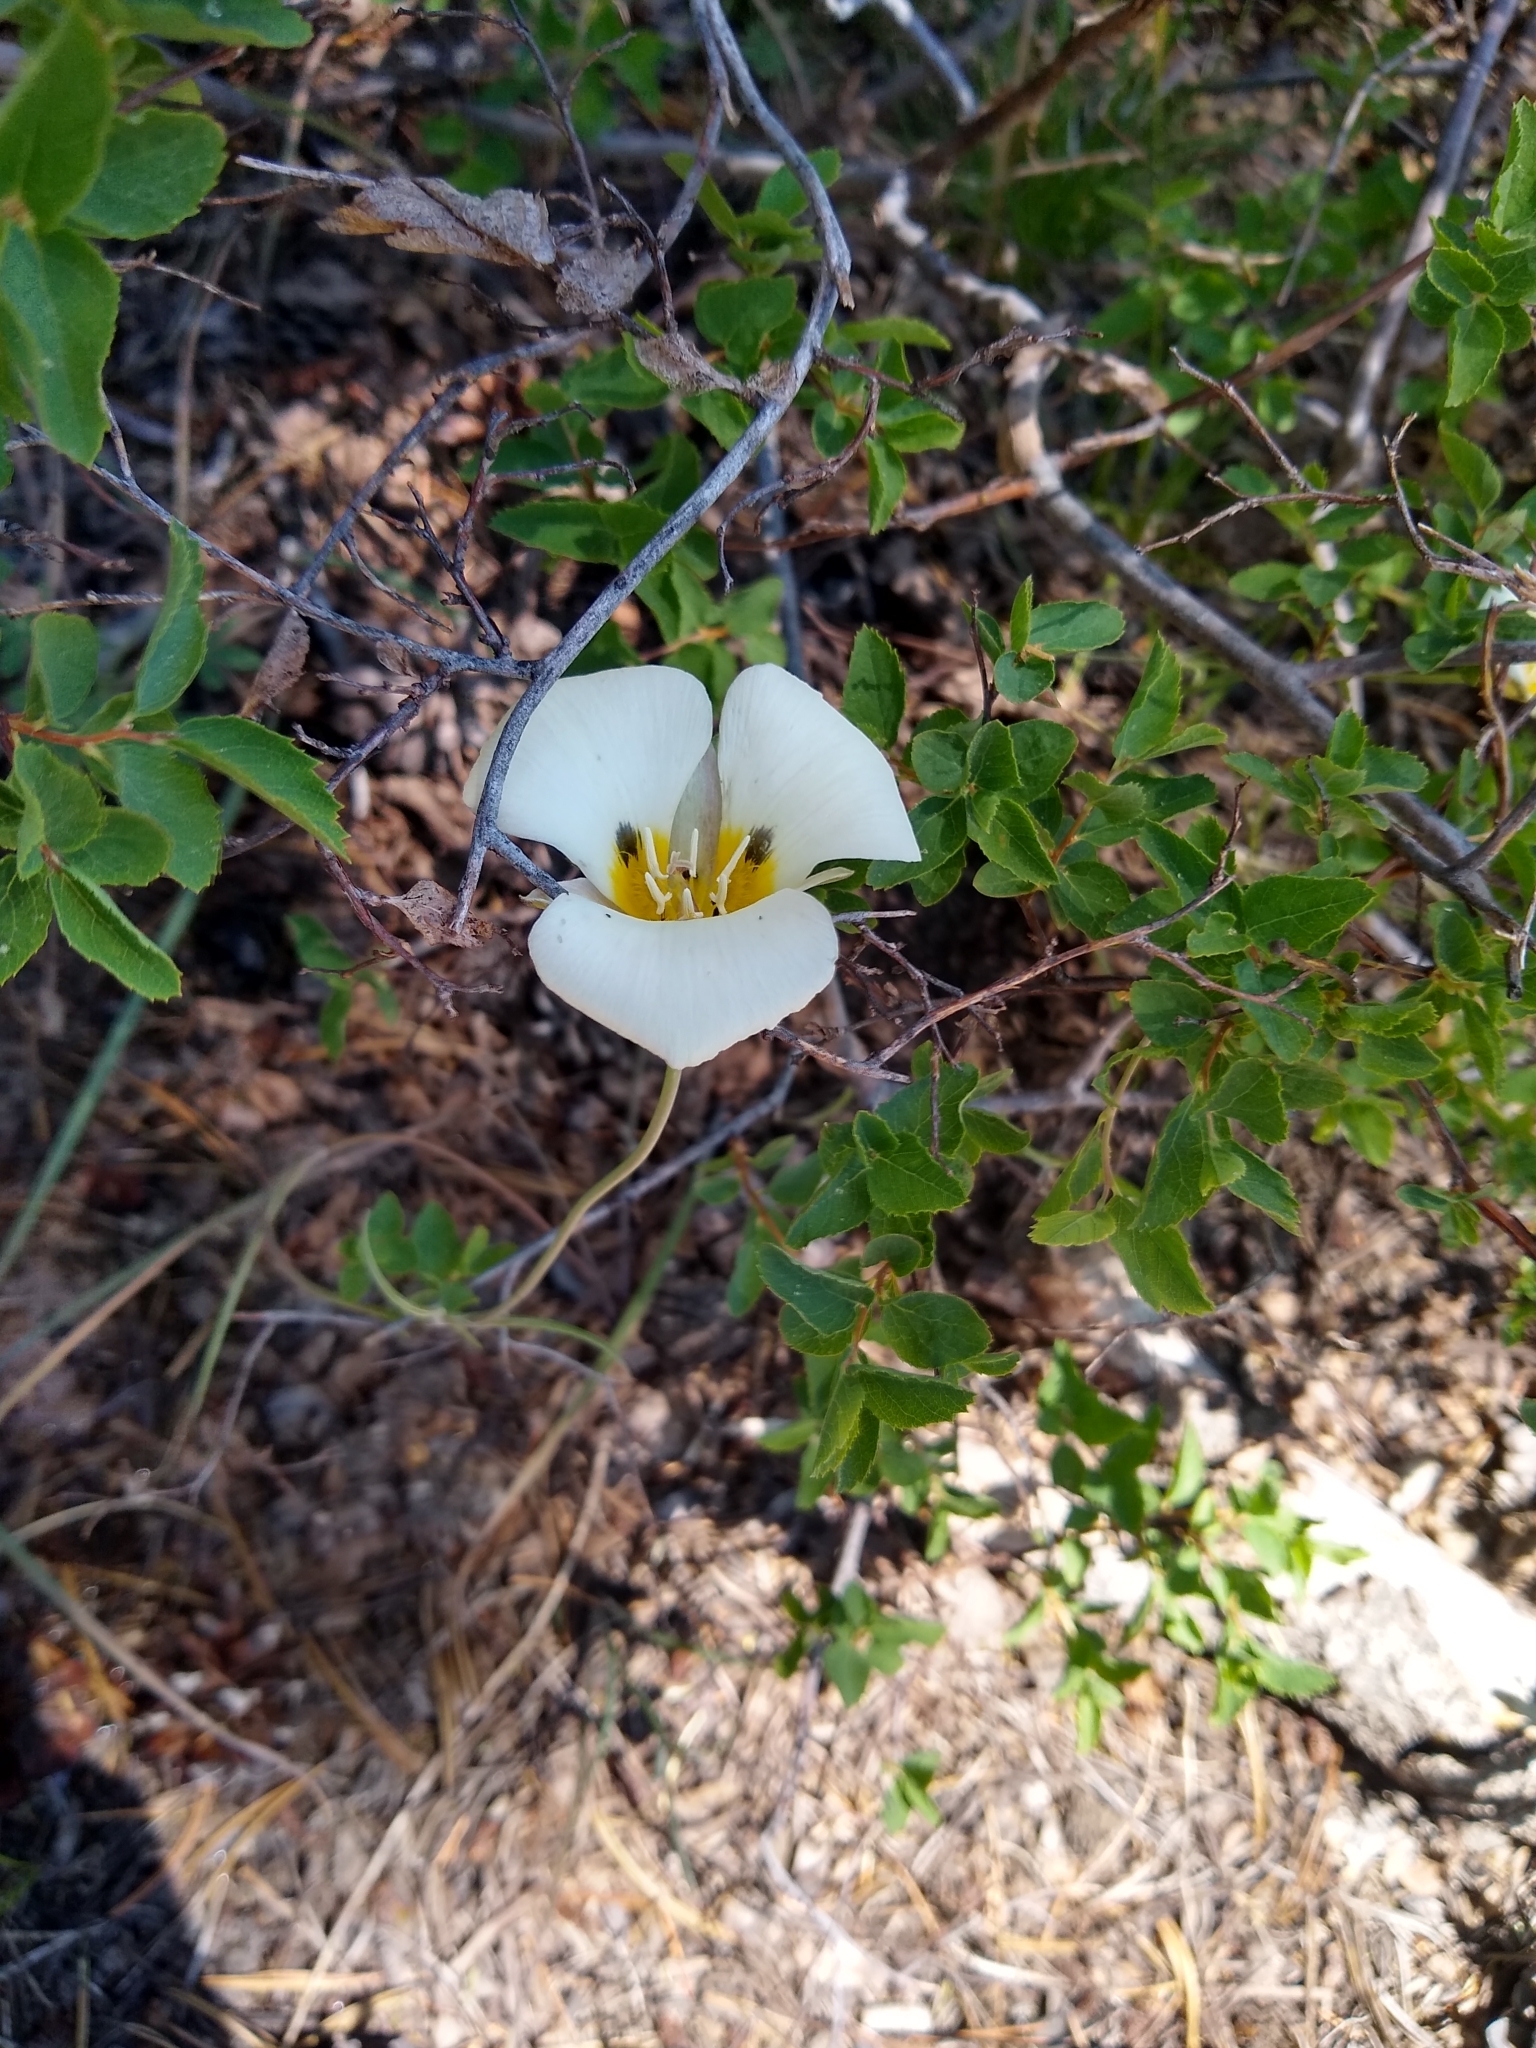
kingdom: Plantae
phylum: Tracheophyta
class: Liliopsida
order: Liliales
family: Liliaceae
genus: Calochortus
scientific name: Calochortus leichtlinii
